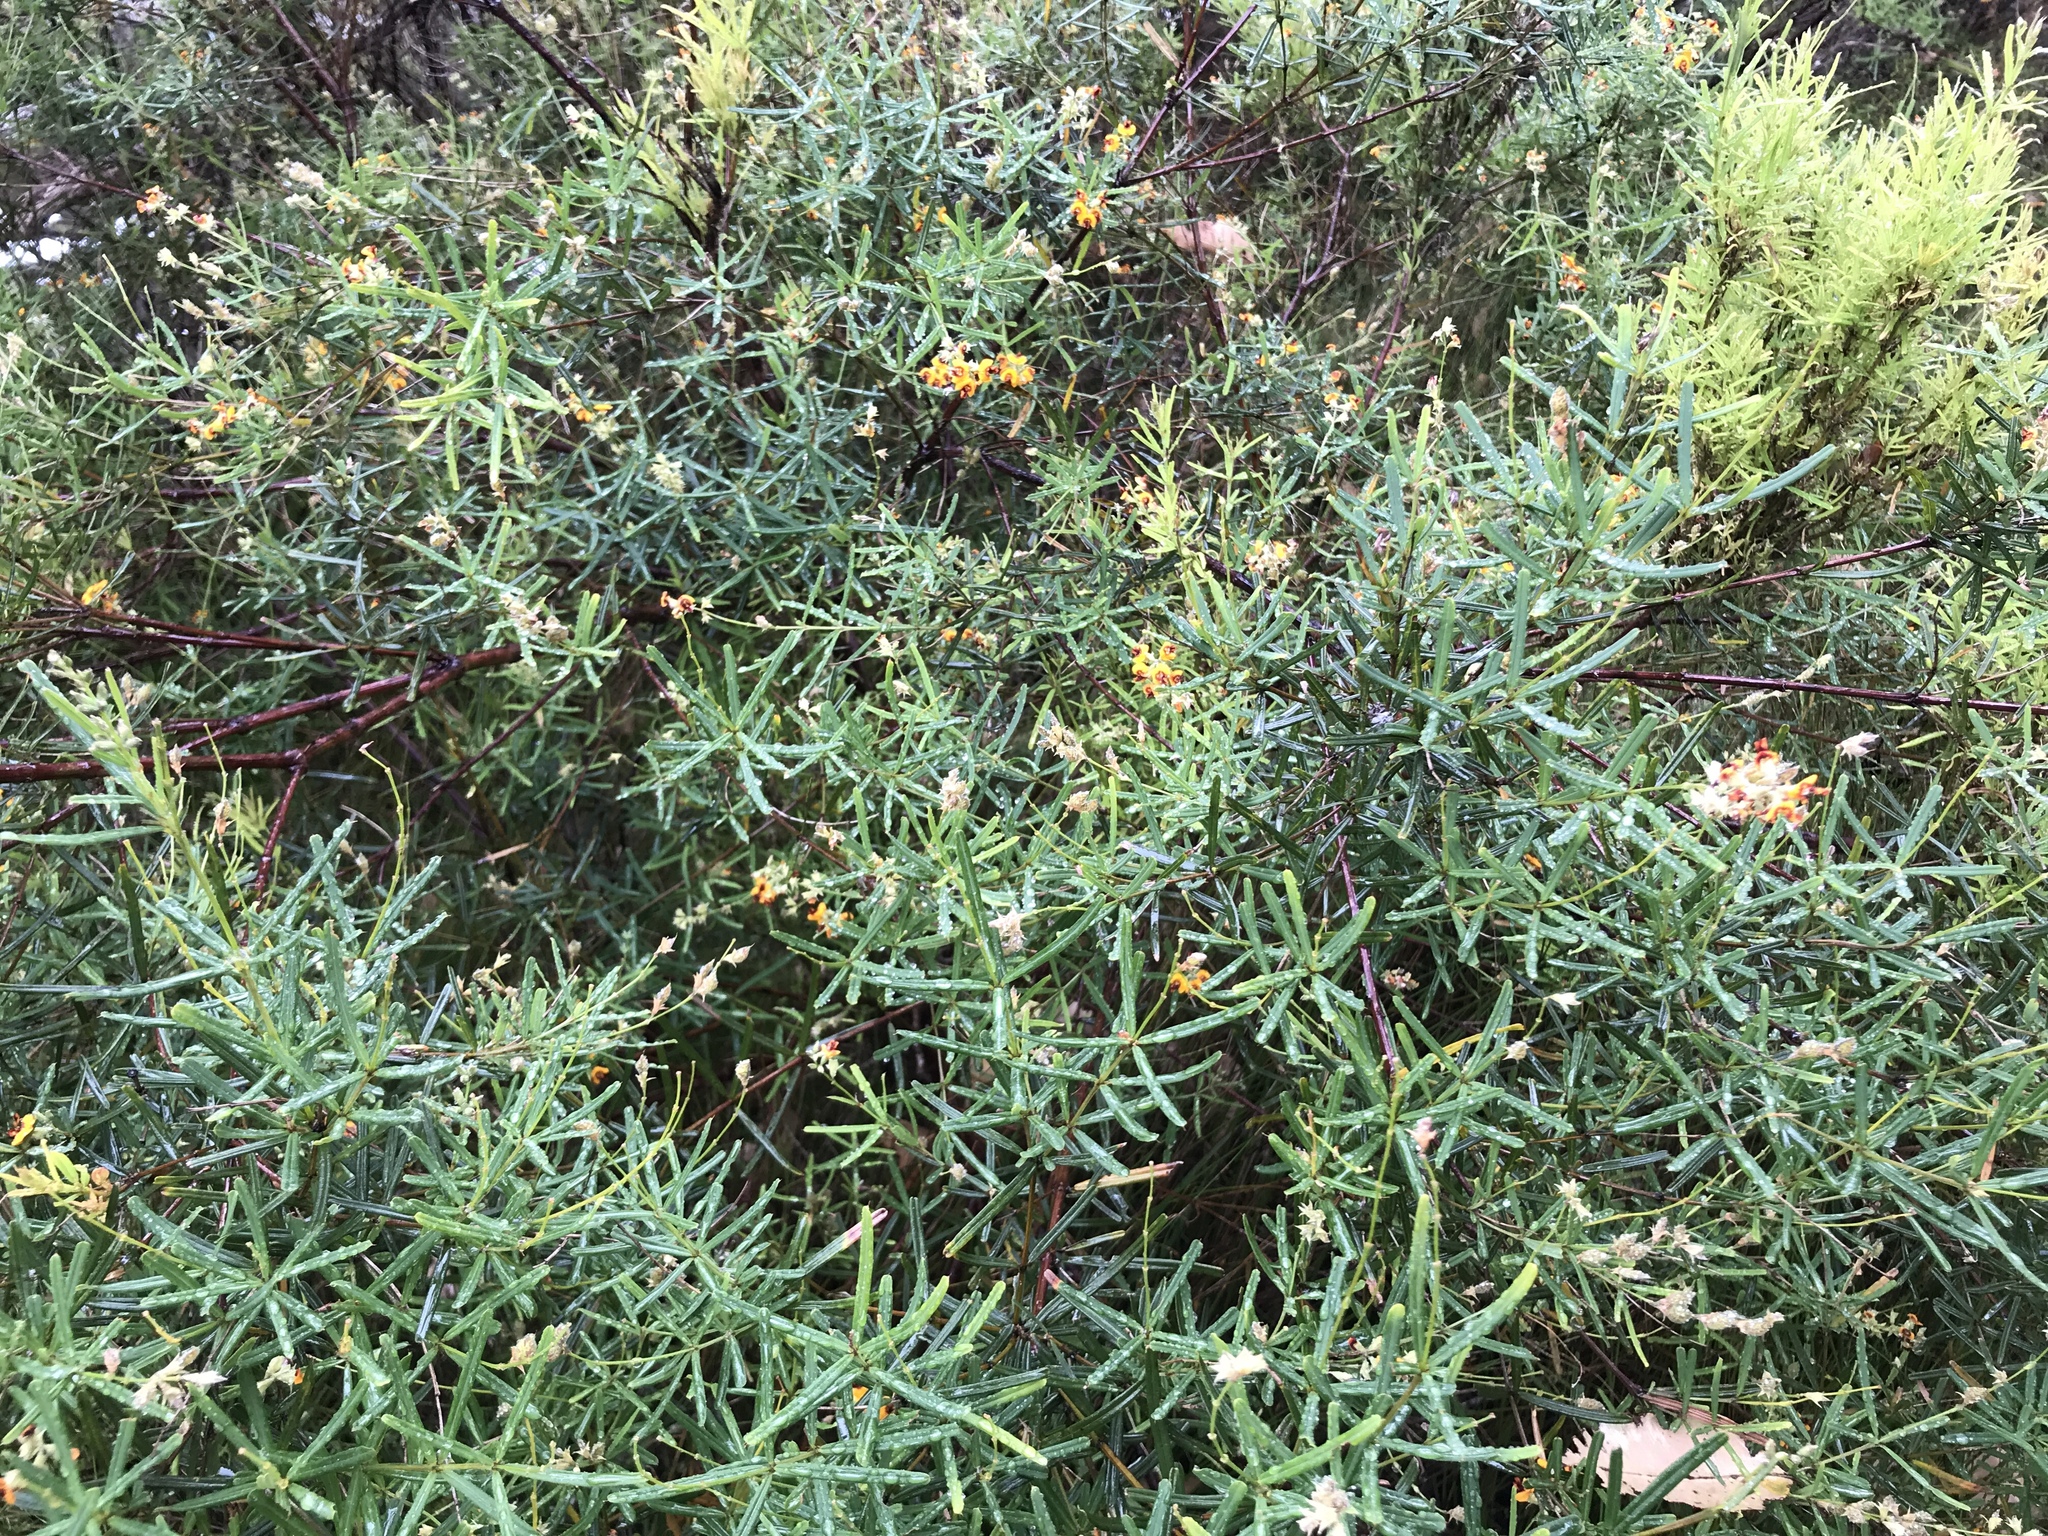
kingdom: Plantae
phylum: Tracheophyta
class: Magnoliopsida
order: Fabales
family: Fabaceae
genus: Gastrolobium
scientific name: Gastrolobium cuneatum
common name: River poisonbush
